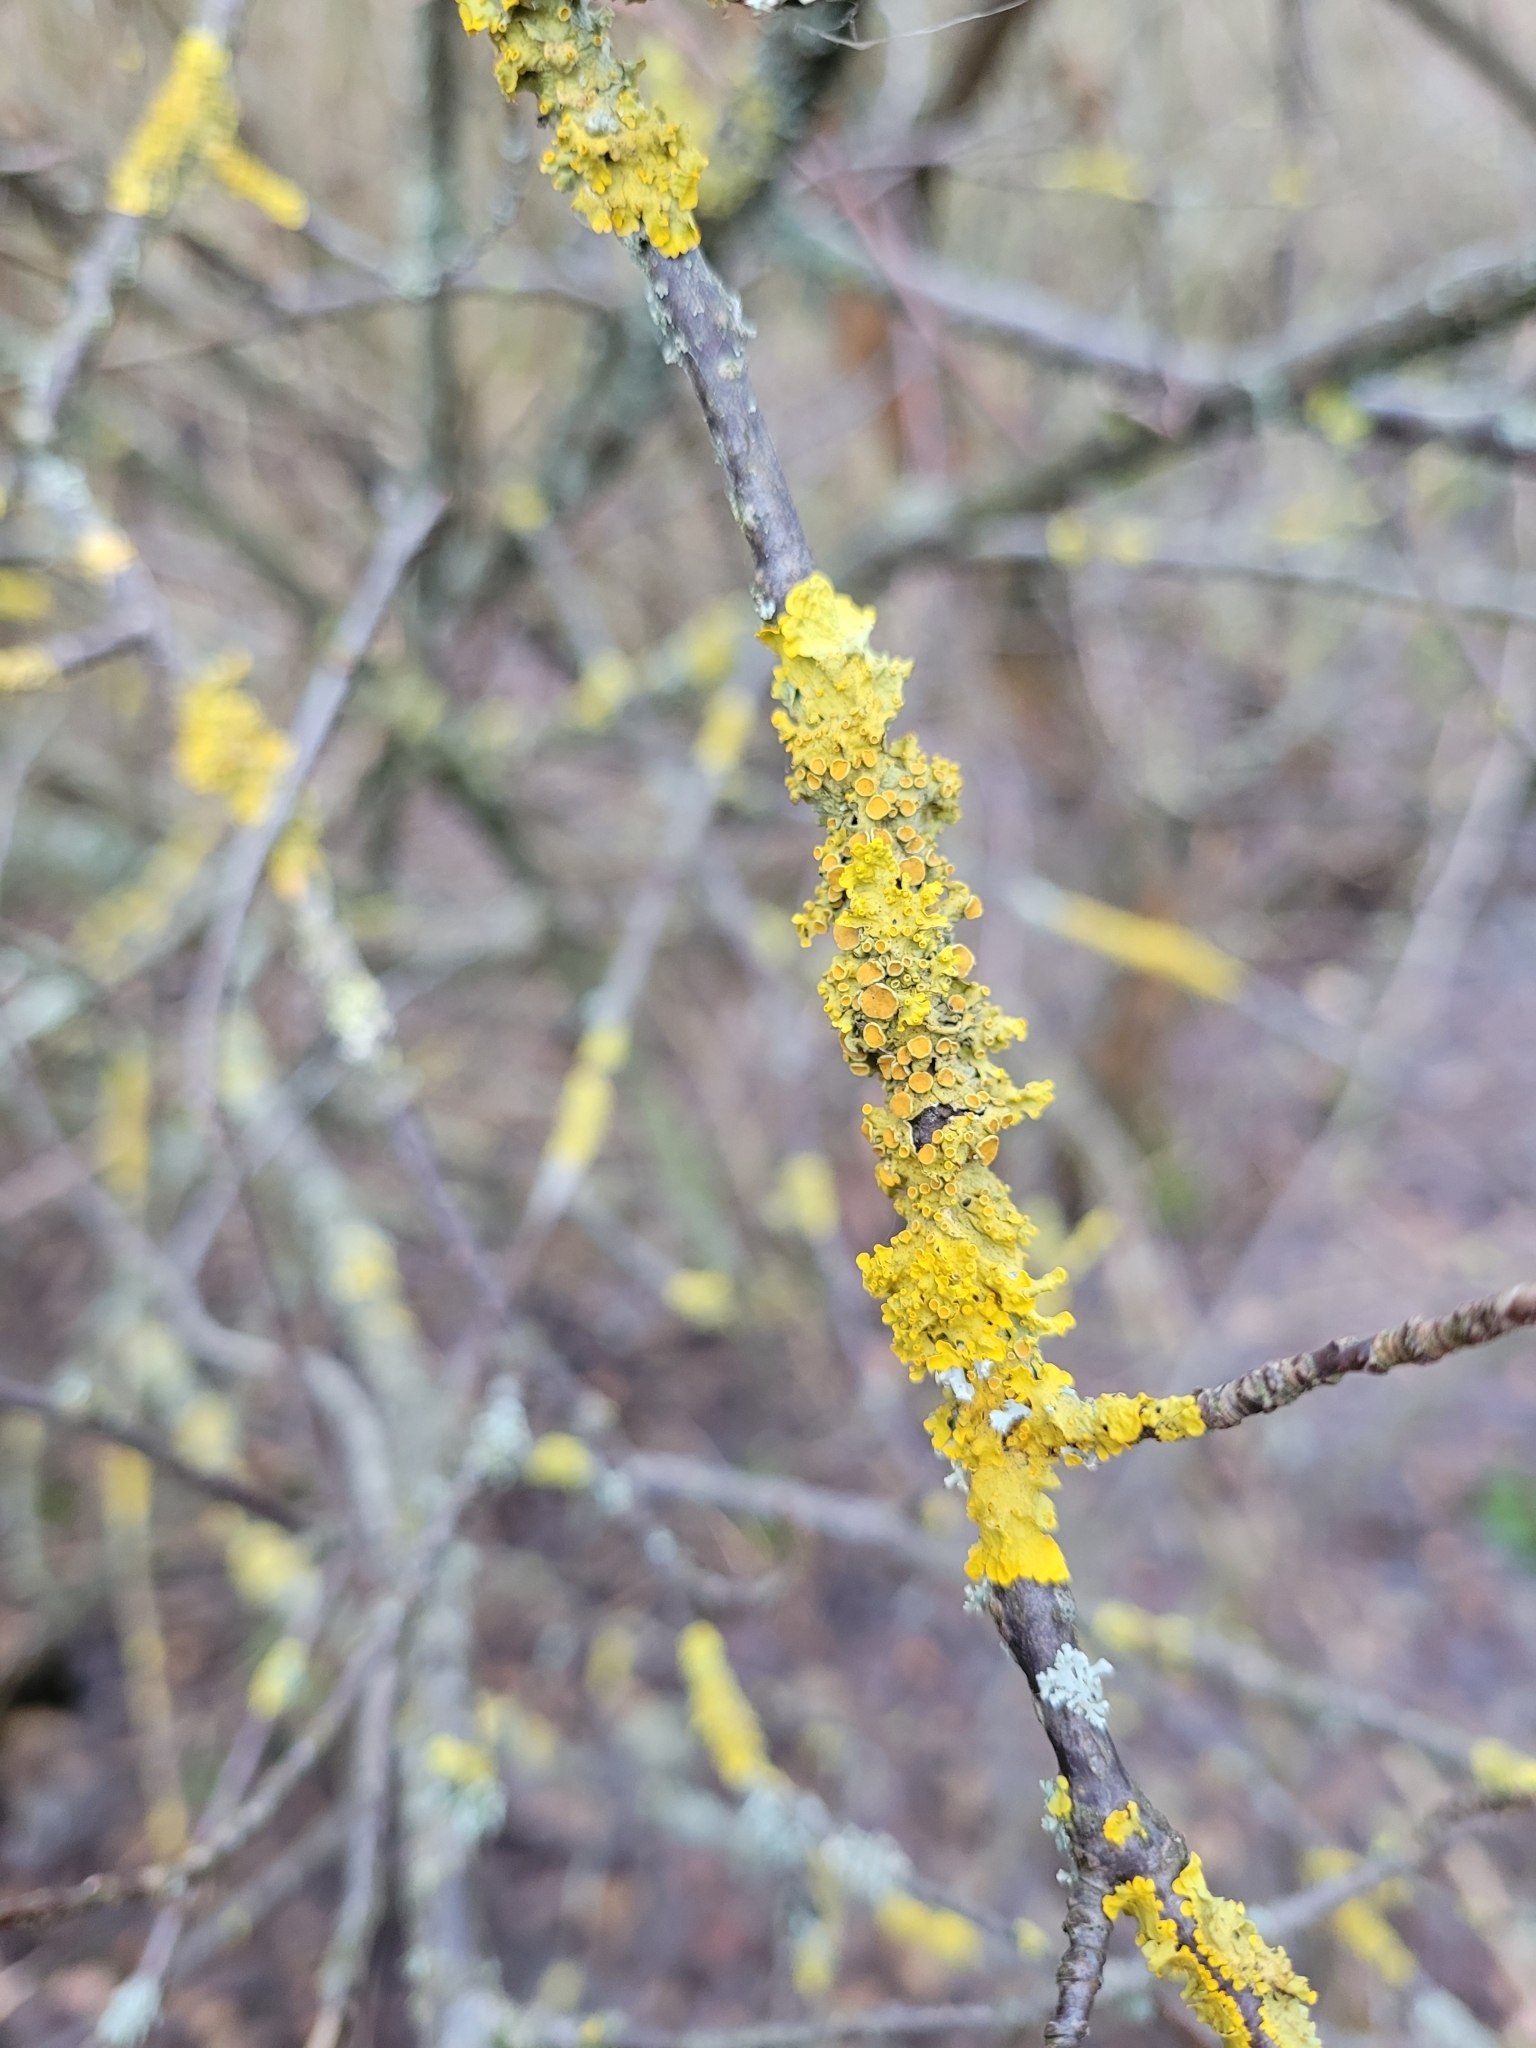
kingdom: Fungi
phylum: Ascomycota
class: Lecanoromycetes
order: Teloschistales
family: Teloschistaceae
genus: Xanthoria
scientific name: Xanthoria parietina
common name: Common orange lichen
